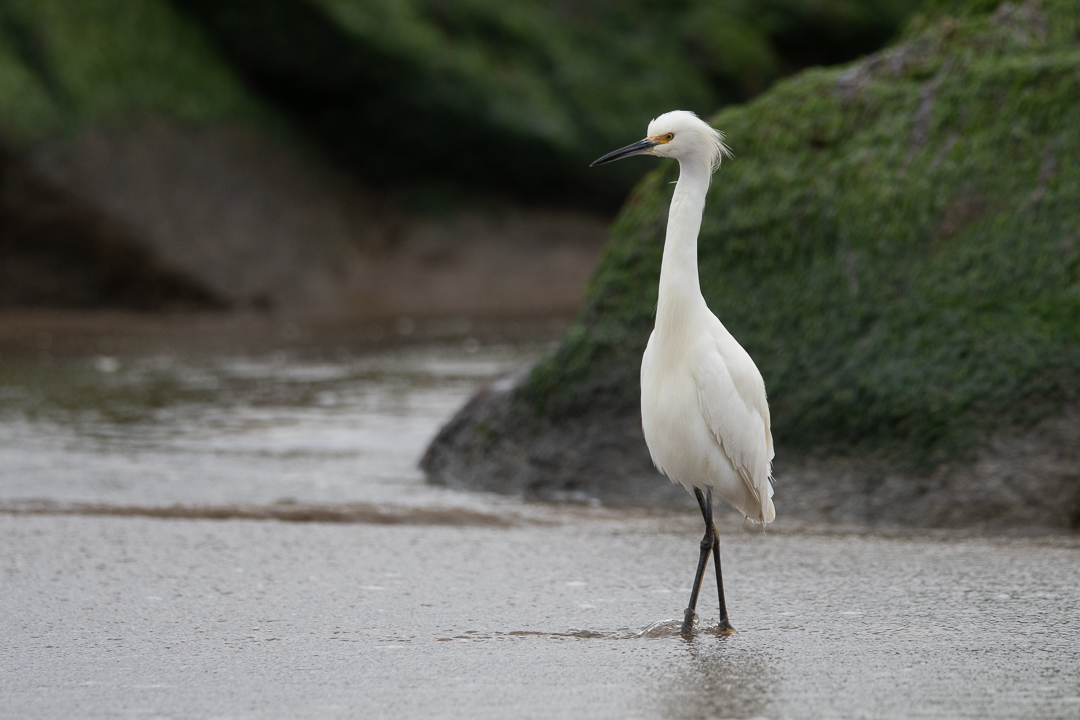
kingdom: Animalia
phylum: Chordata
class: Aves
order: Pelecaniformes
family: Ardeidae
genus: Egretta
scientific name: Egretta thula
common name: Snowy egret
